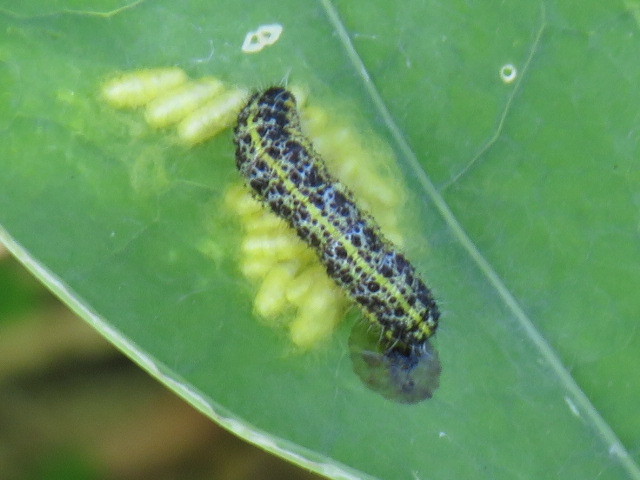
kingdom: Plantae
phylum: Tracheophyta
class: Magnoliopsida
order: Brassicales
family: Tropaeolaceae
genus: Tropaeolum
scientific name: Tropaeolum majus
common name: Nasturtium
